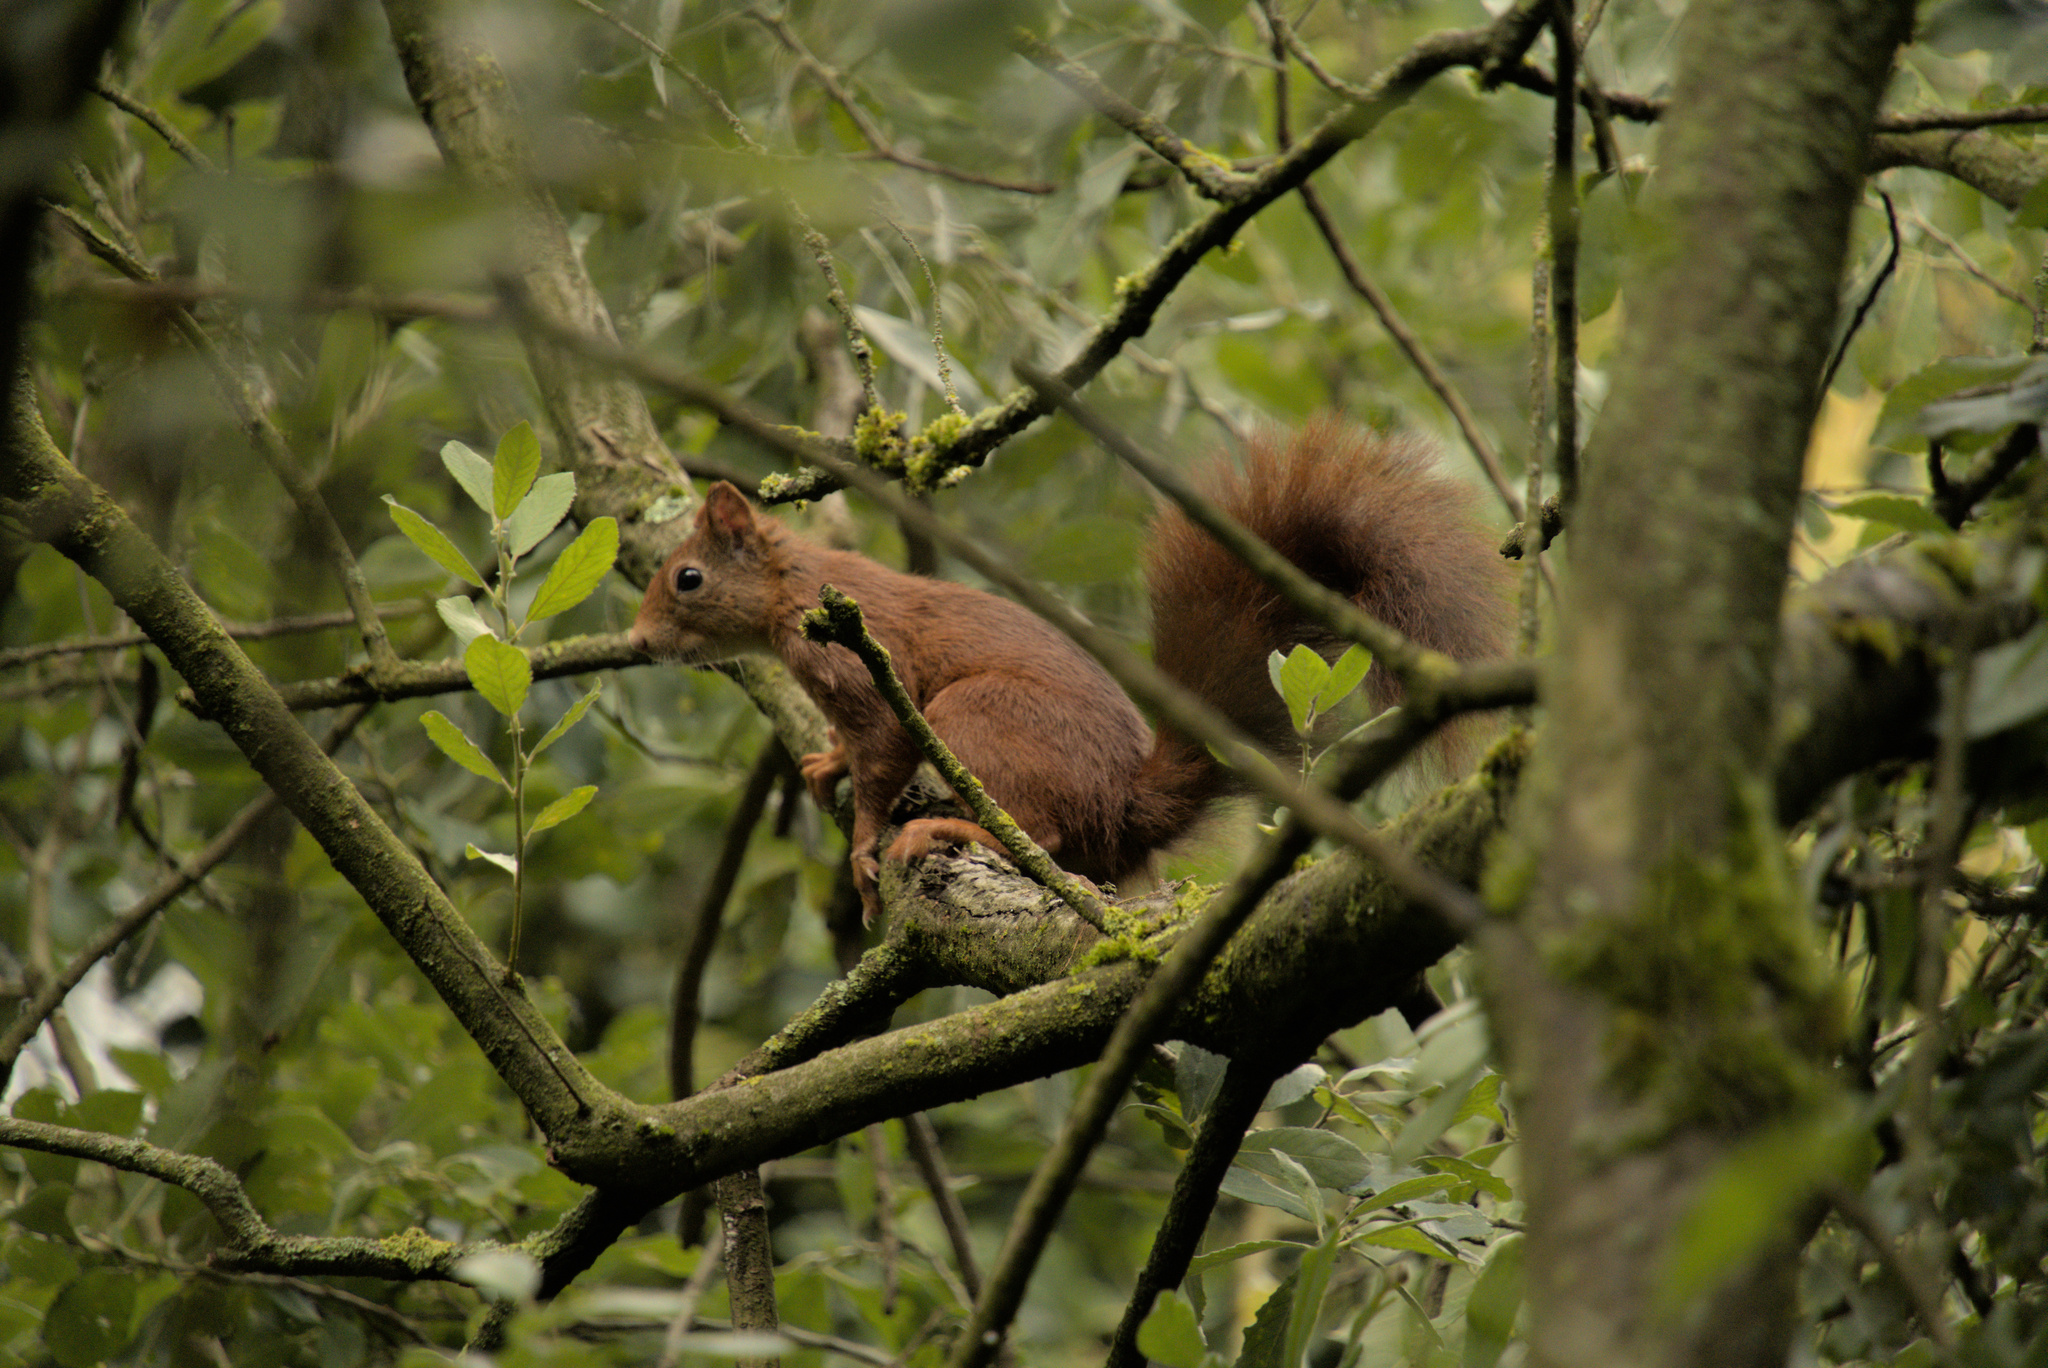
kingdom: Animalia
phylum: Chordata
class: Mammalia
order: Rodentia
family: Sciuridae
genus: Sciurus
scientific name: Sciurus vulgaris
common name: Eurasian red squirrel
